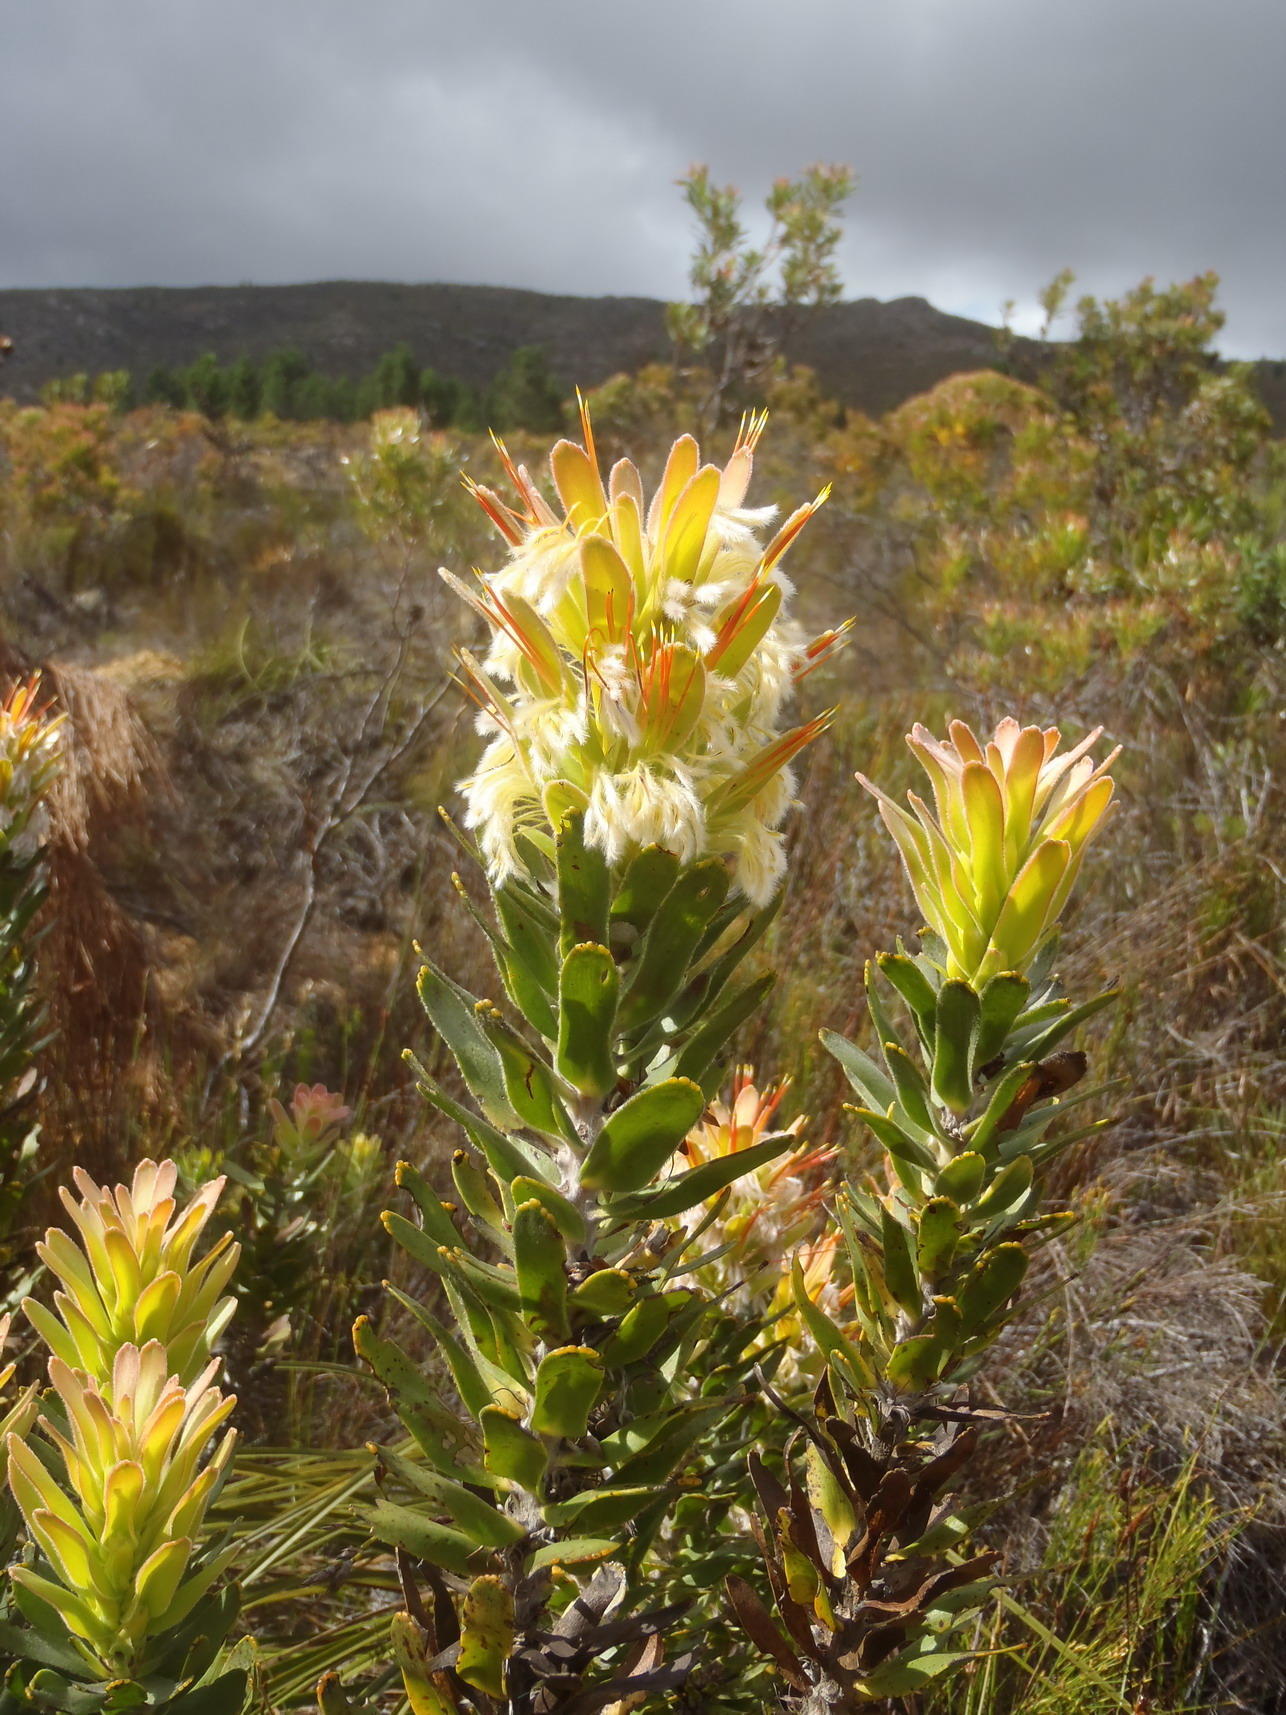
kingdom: Plantae
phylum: Tracheophyta
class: Magnoliopsida
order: Proteales
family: Proteaceae
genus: Mimetes
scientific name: Mimetes cucullatus
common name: Common pagoda
